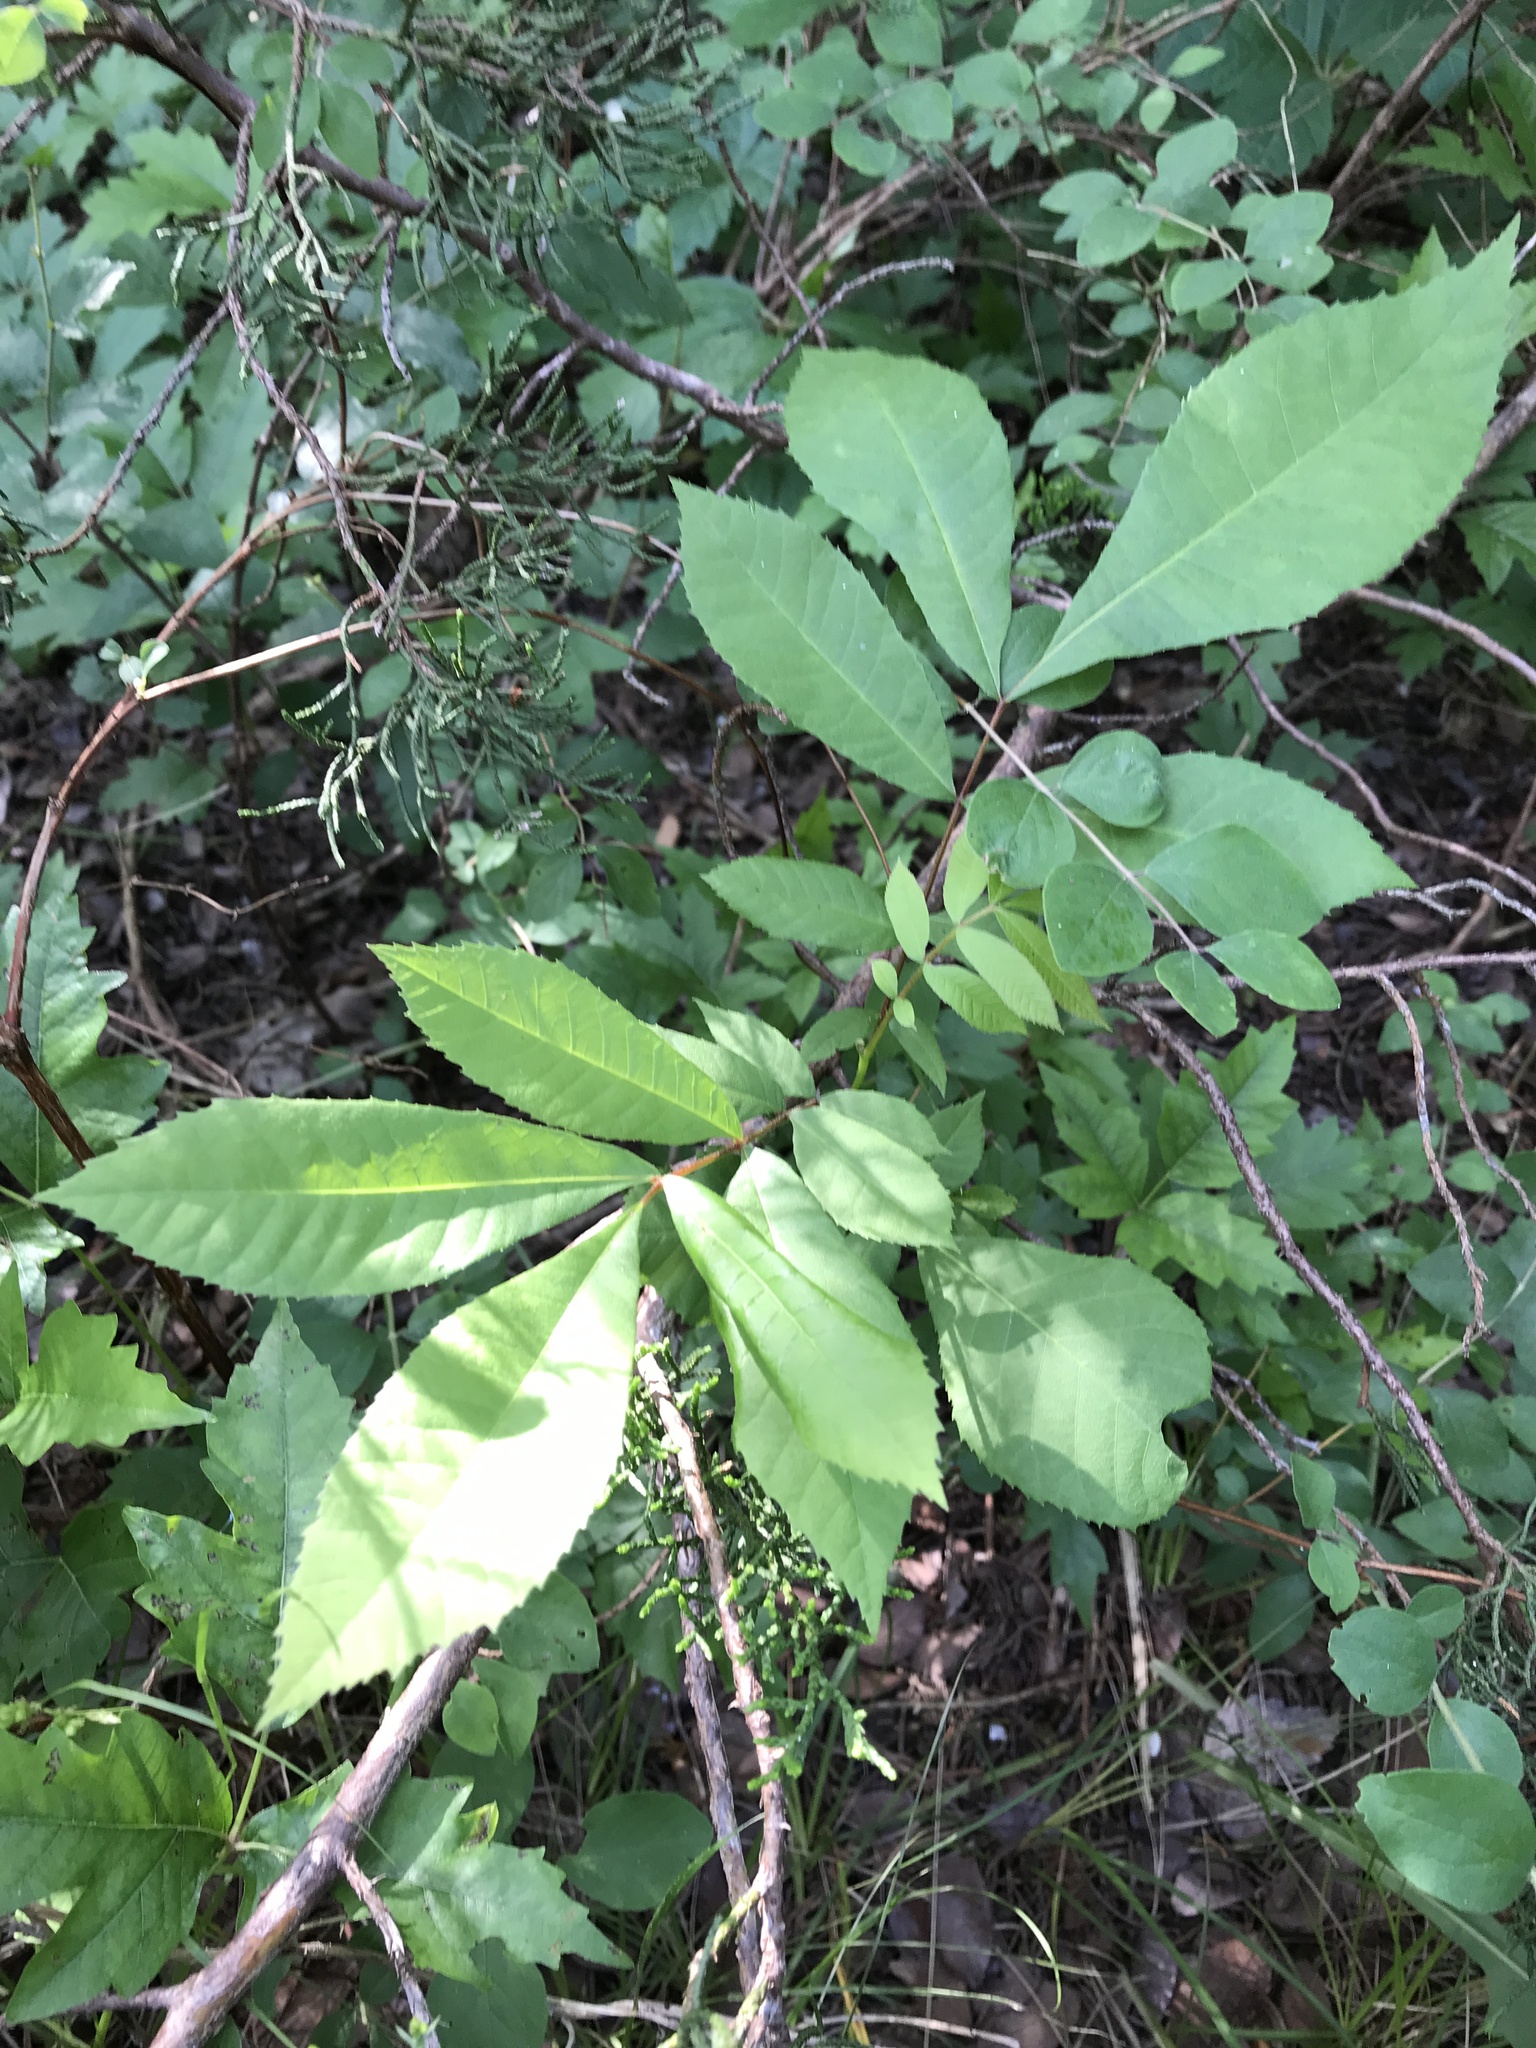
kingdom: Plantae
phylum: Tracheophyta
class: Magnoliopsida
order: Fagales
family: Juglandaceae
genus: Carya
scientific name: Carya illinoinensis
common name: Pecan
